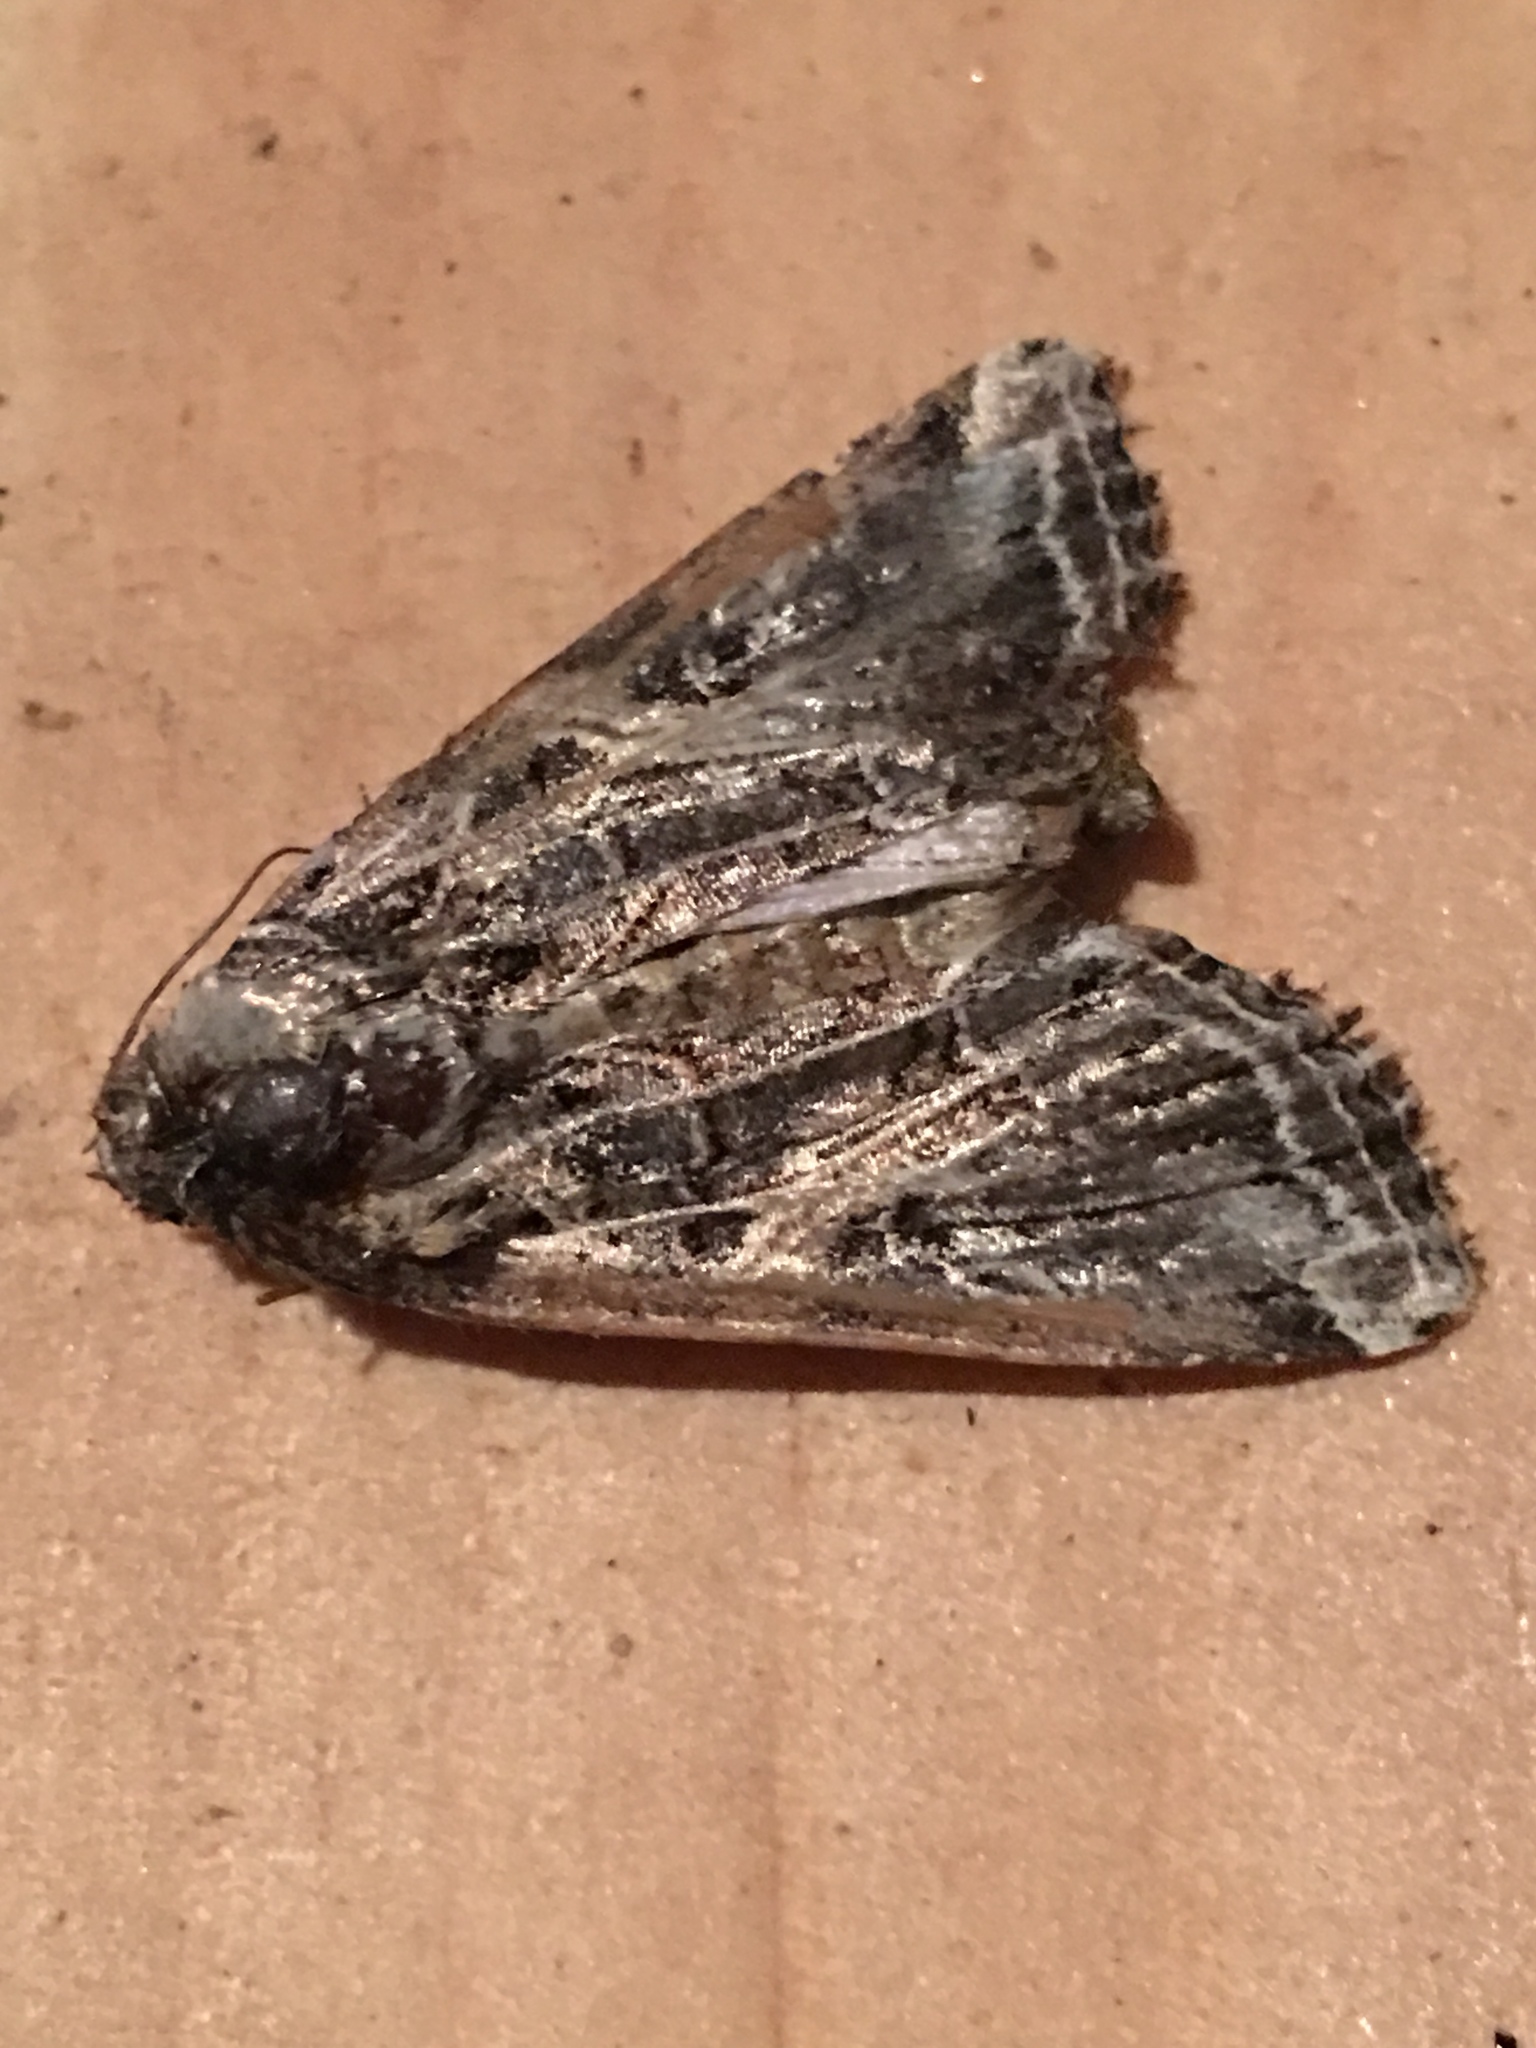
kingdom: Animalia
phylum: Arthropoda
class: Insecta
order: Lepidoptera
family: Noctuidae
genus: Spodoptera
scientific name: Spodoptera ornithogalli
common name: Yellow-striped armyworm
